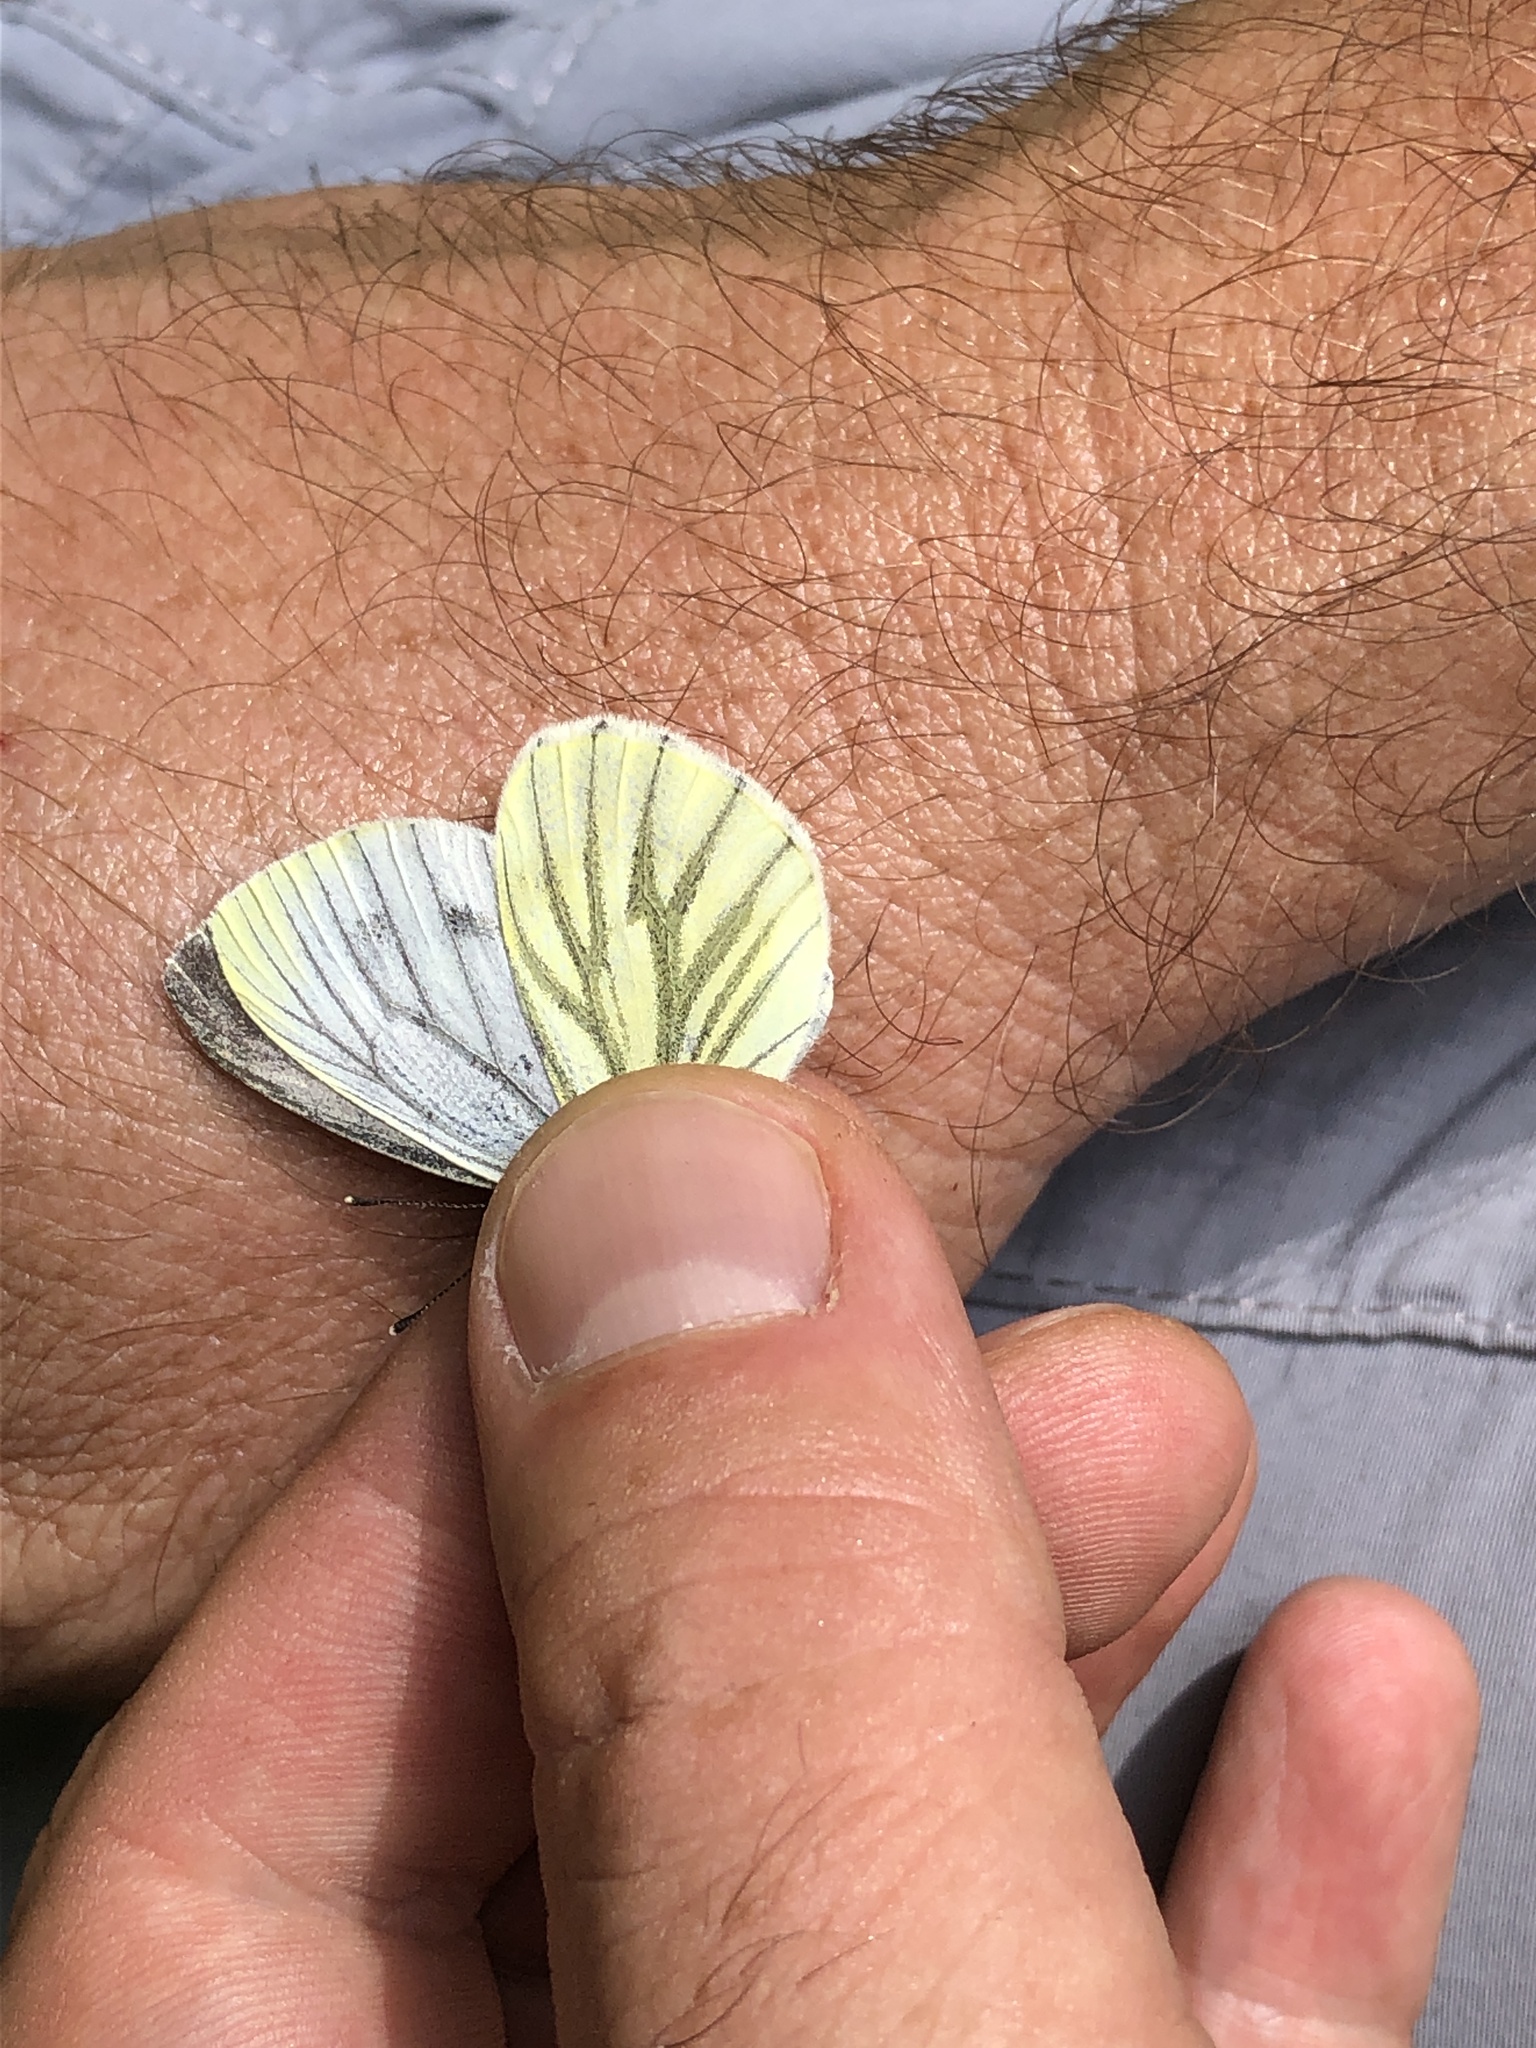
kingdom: Animalia
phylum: Arthropoda
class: Insecta
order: Lepidoptera
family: Pieridae
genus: Pieris
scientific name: Pieris bryoniae
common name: Mountain green-veined white
